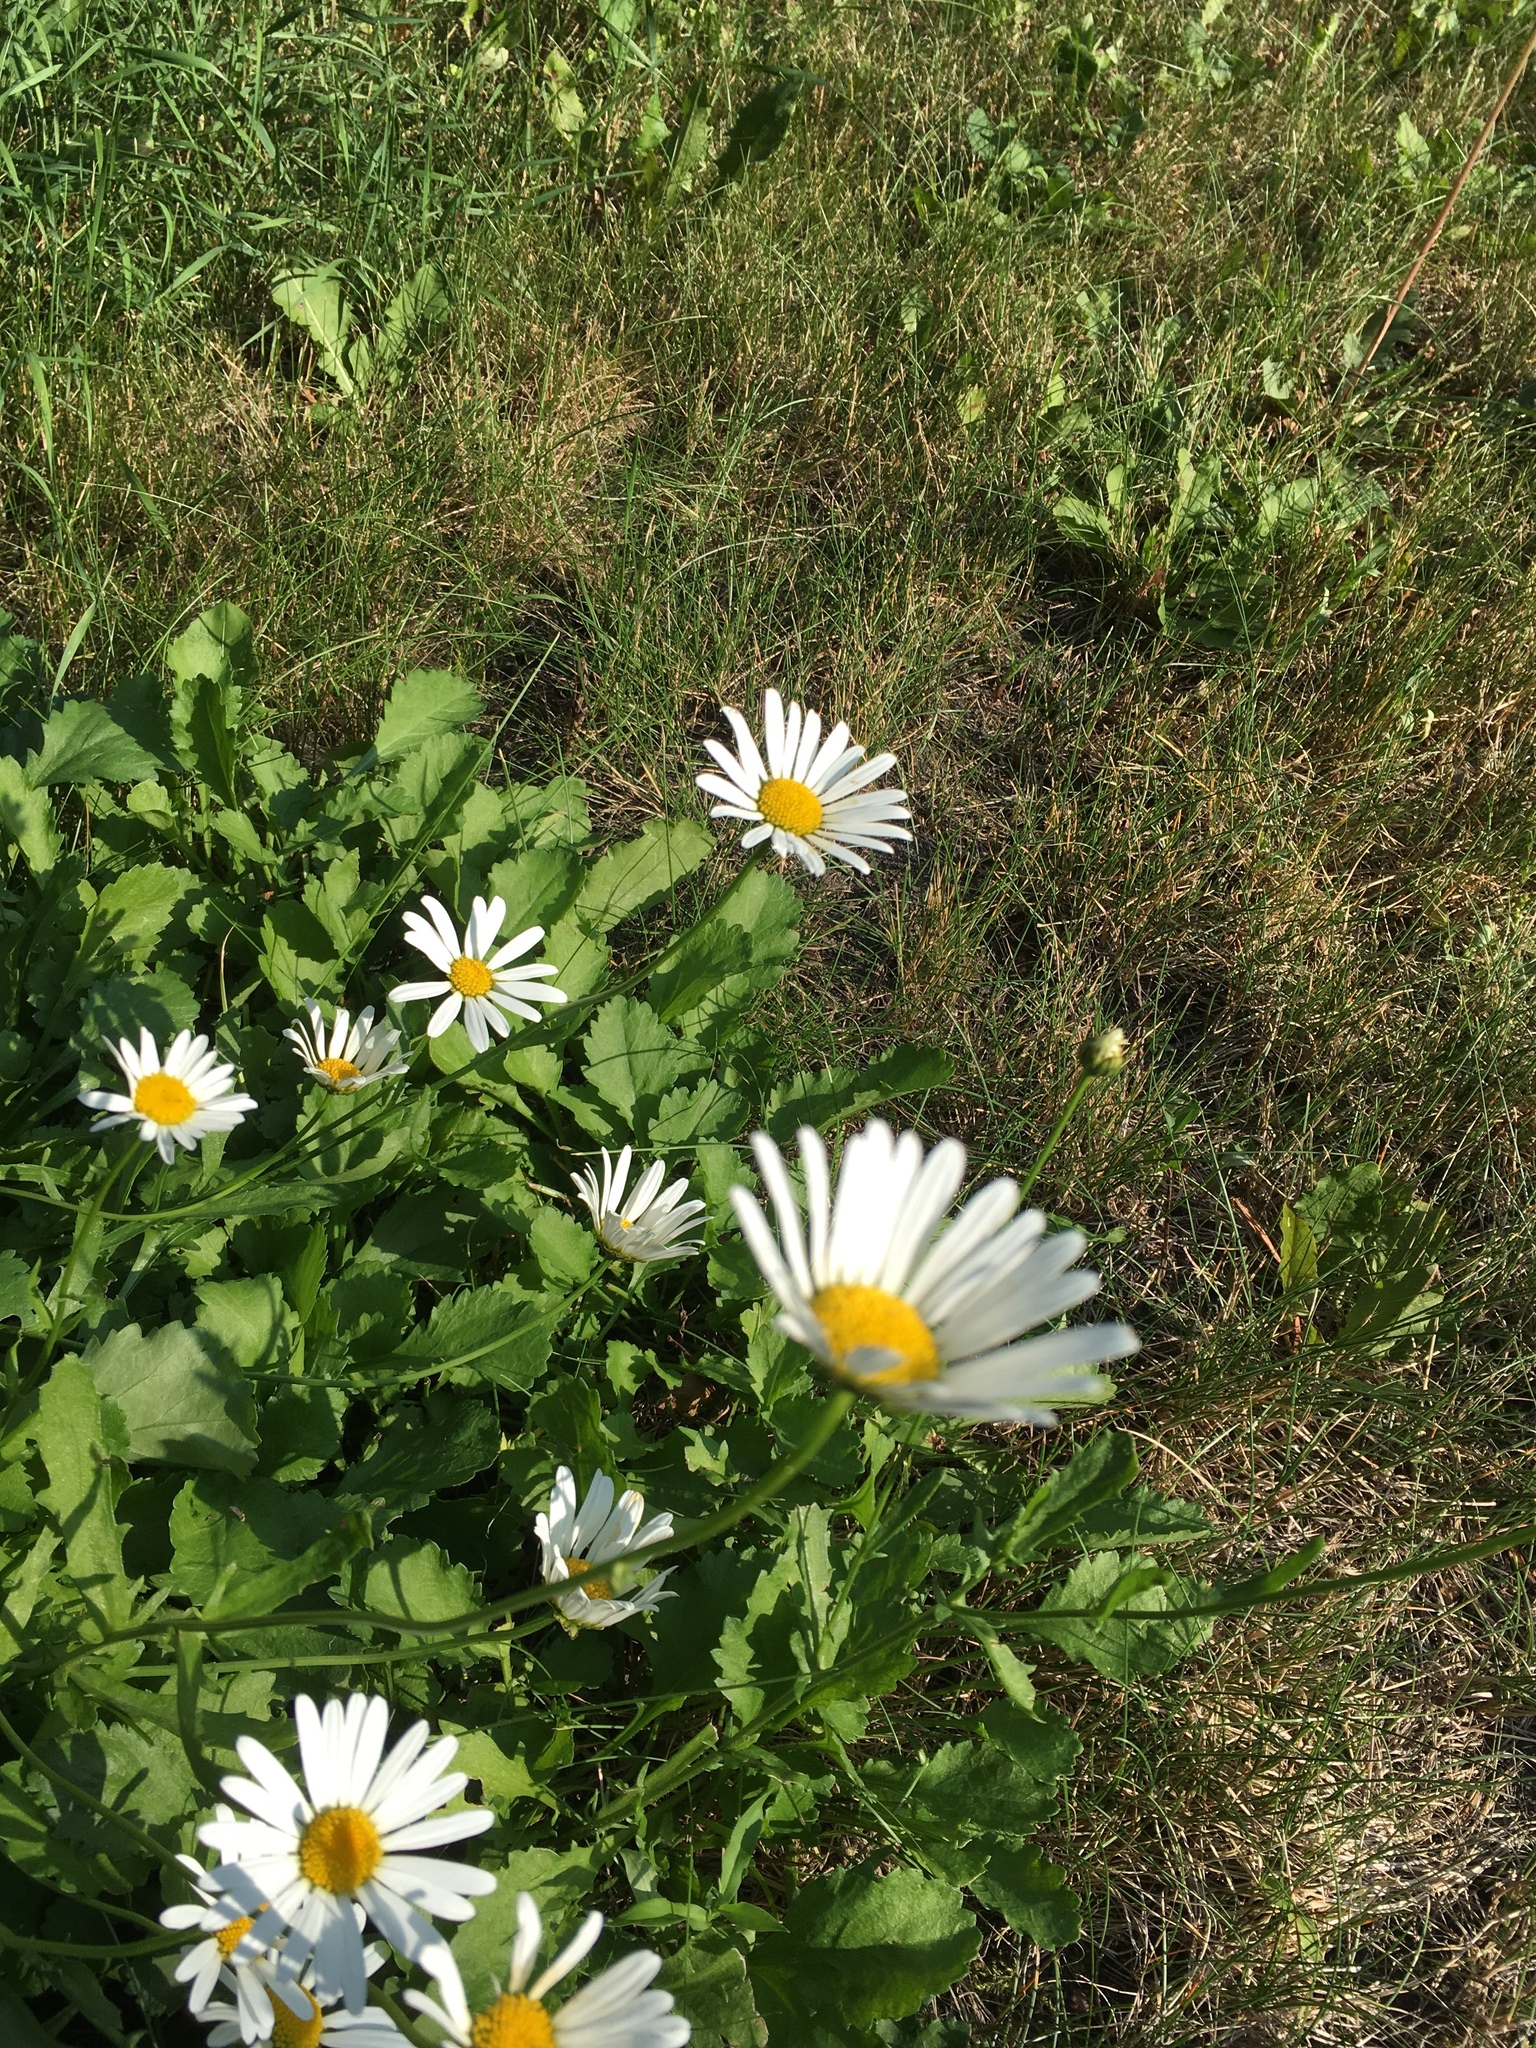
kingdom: Plantae
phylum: Tracheophyta
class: Magnoliopsida
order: Asterales
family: Asteraceae
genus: Leucanthemum
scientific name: Leucanthemum vulgare
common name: Oxeye daisy
